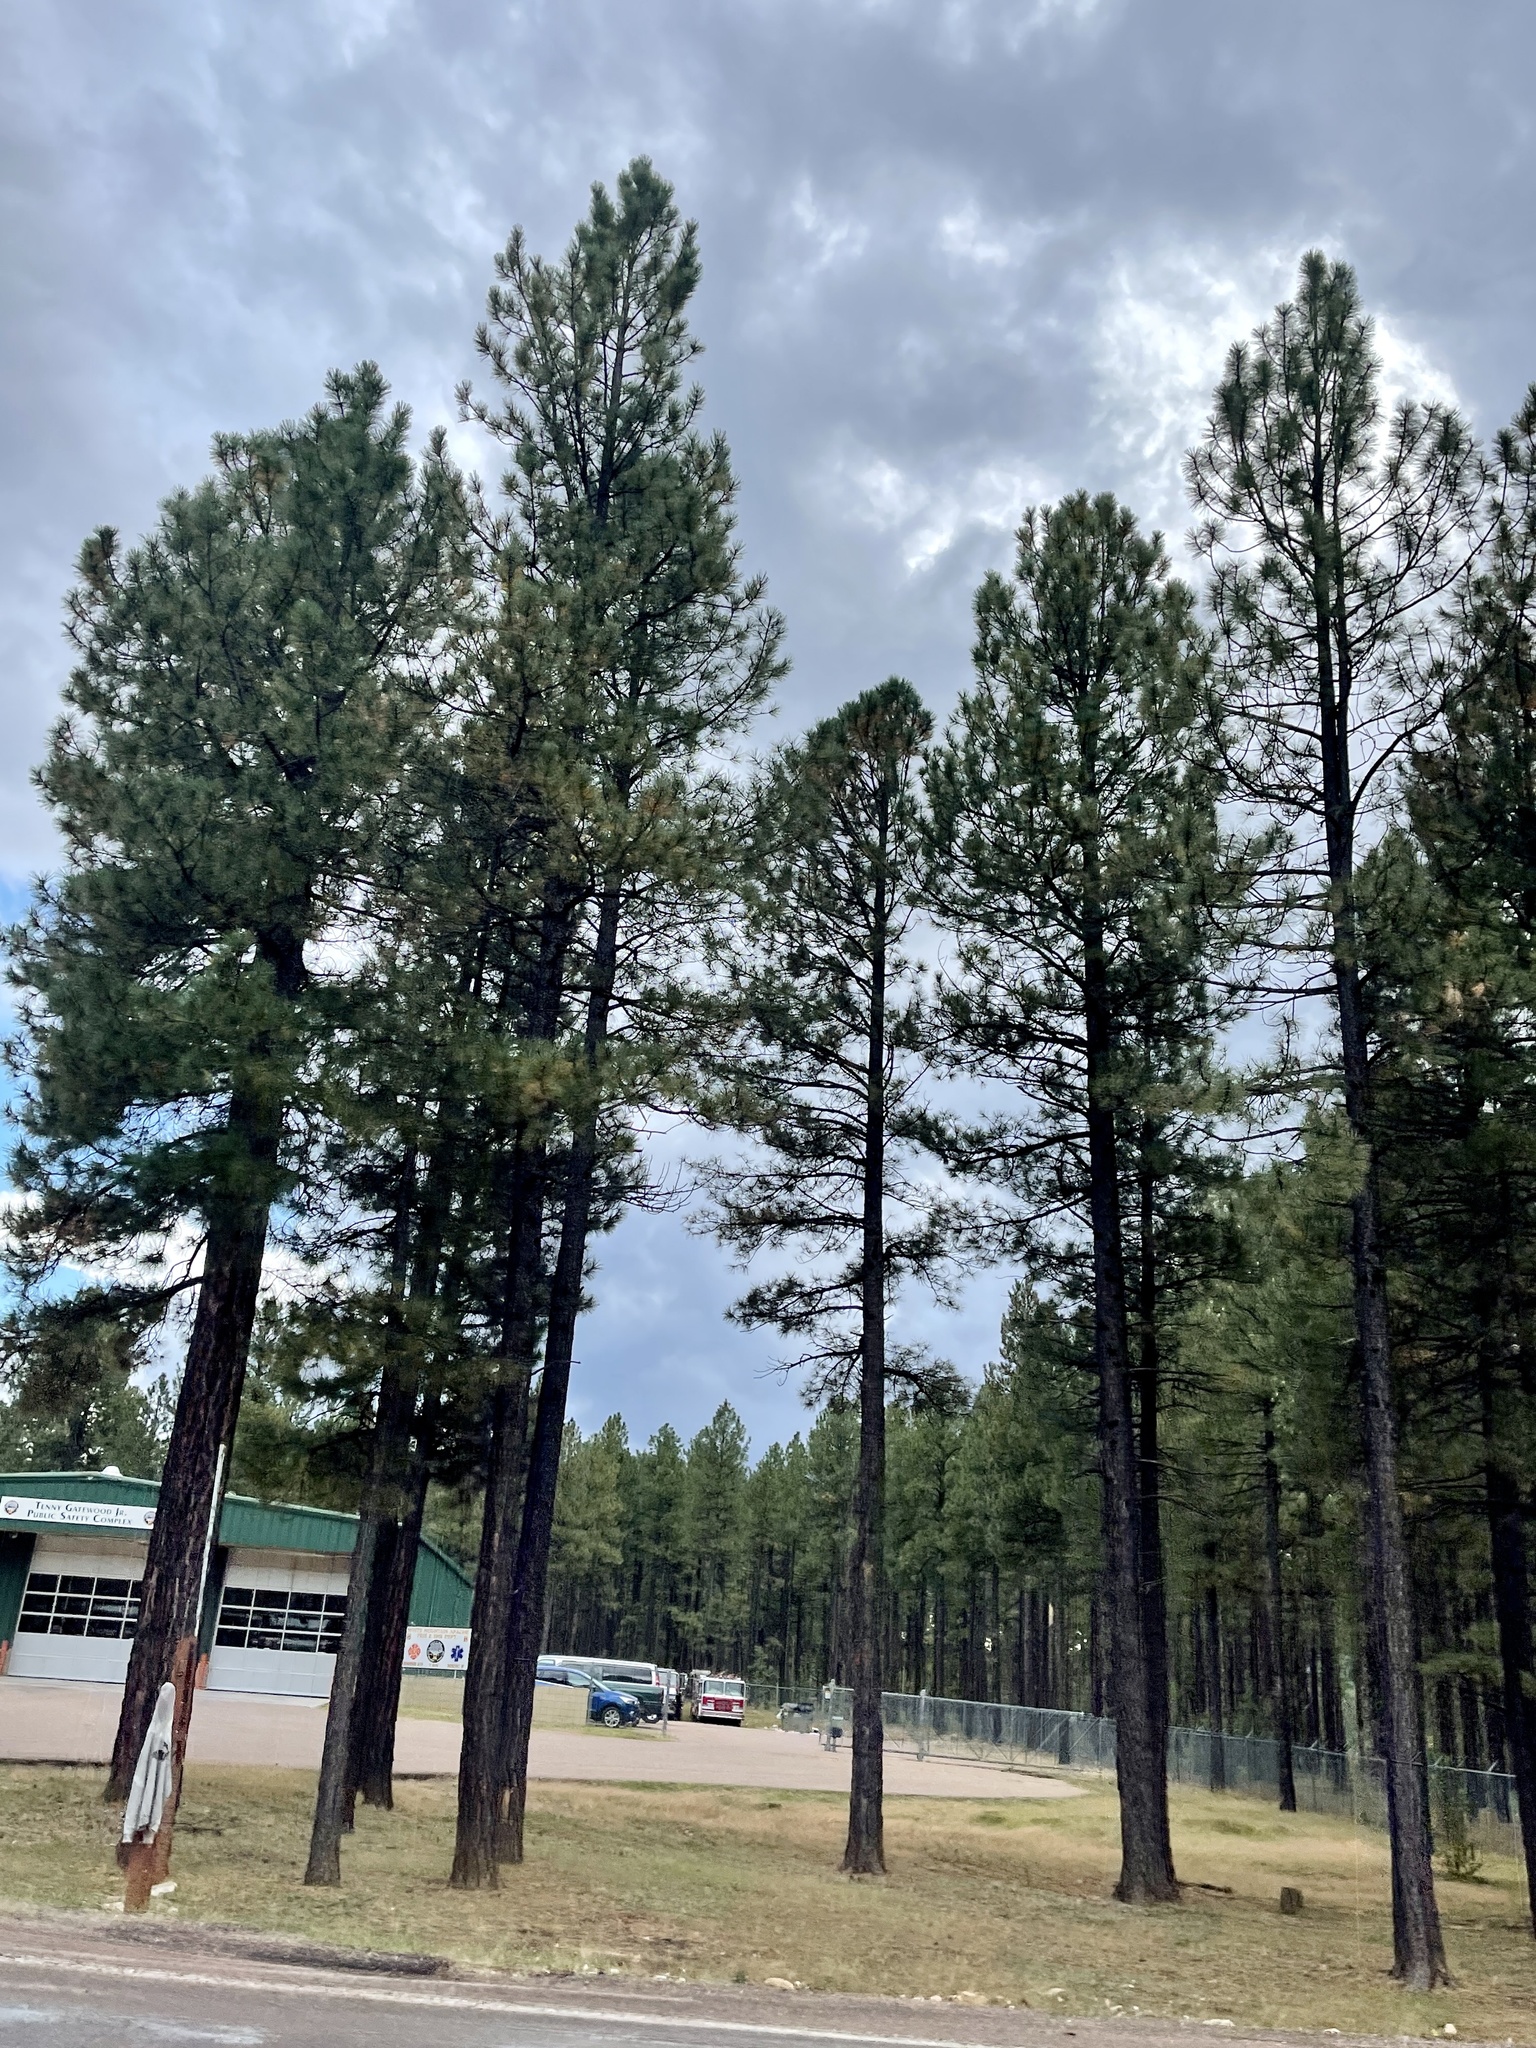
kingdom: Plantae
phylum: Tracheophyta
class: Pinopsida
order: Pinales
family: Pinaceae
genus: Pinus
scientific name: Pinus ponderosa
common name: Western yellow-pine
